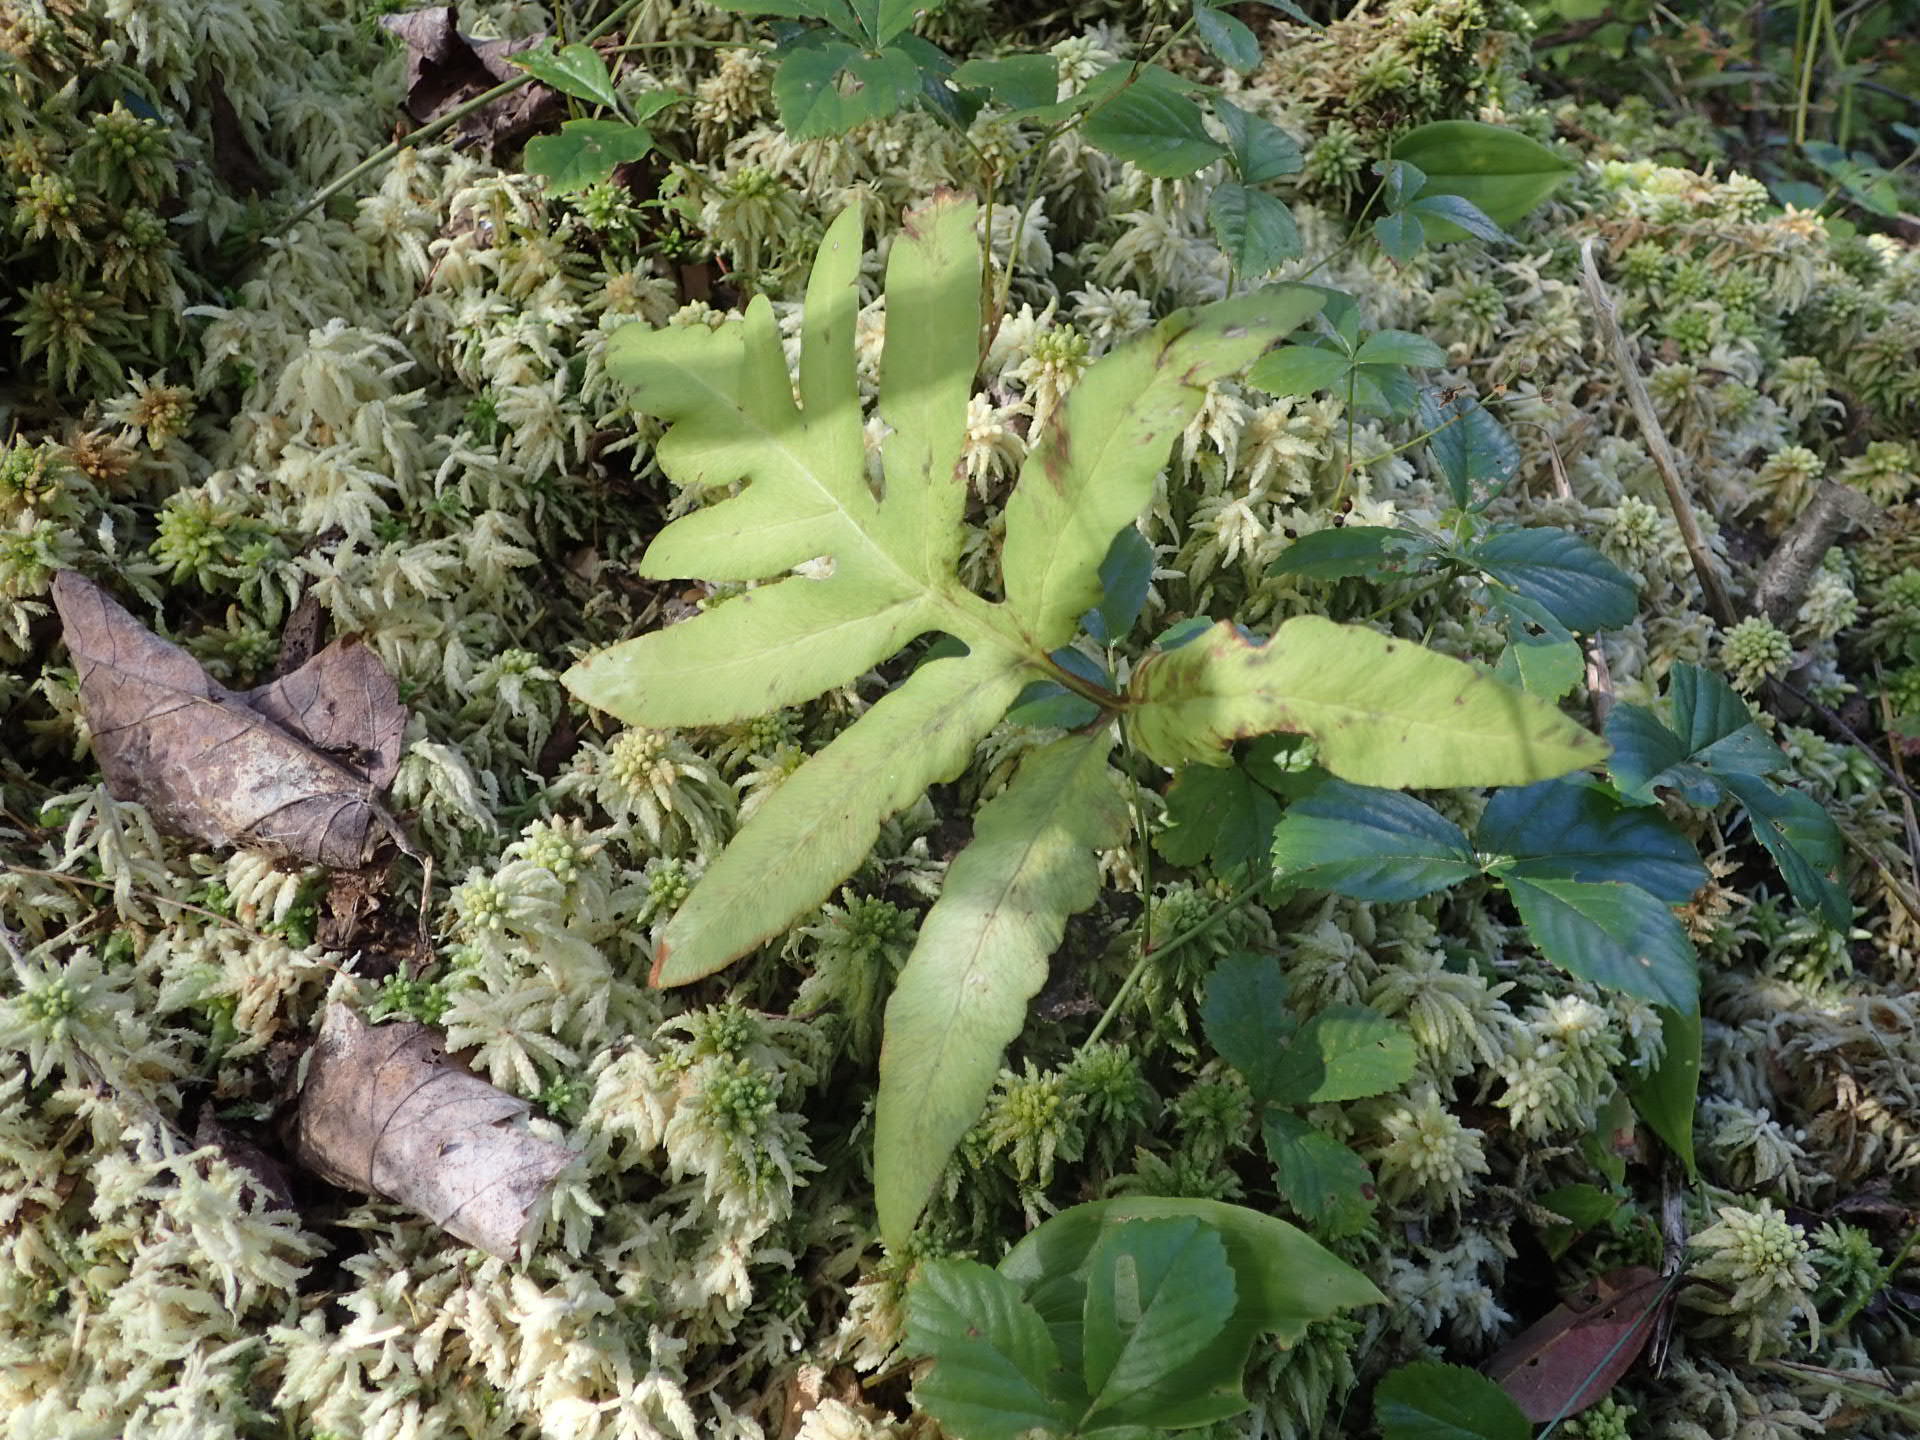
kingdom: Plantae
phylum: Tracheophyta
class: Polypodiopsida
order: Polypodiales
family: Onocleaceae
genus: Onoclea
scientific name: Onoclea sensibilis
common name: Sensitive fern
